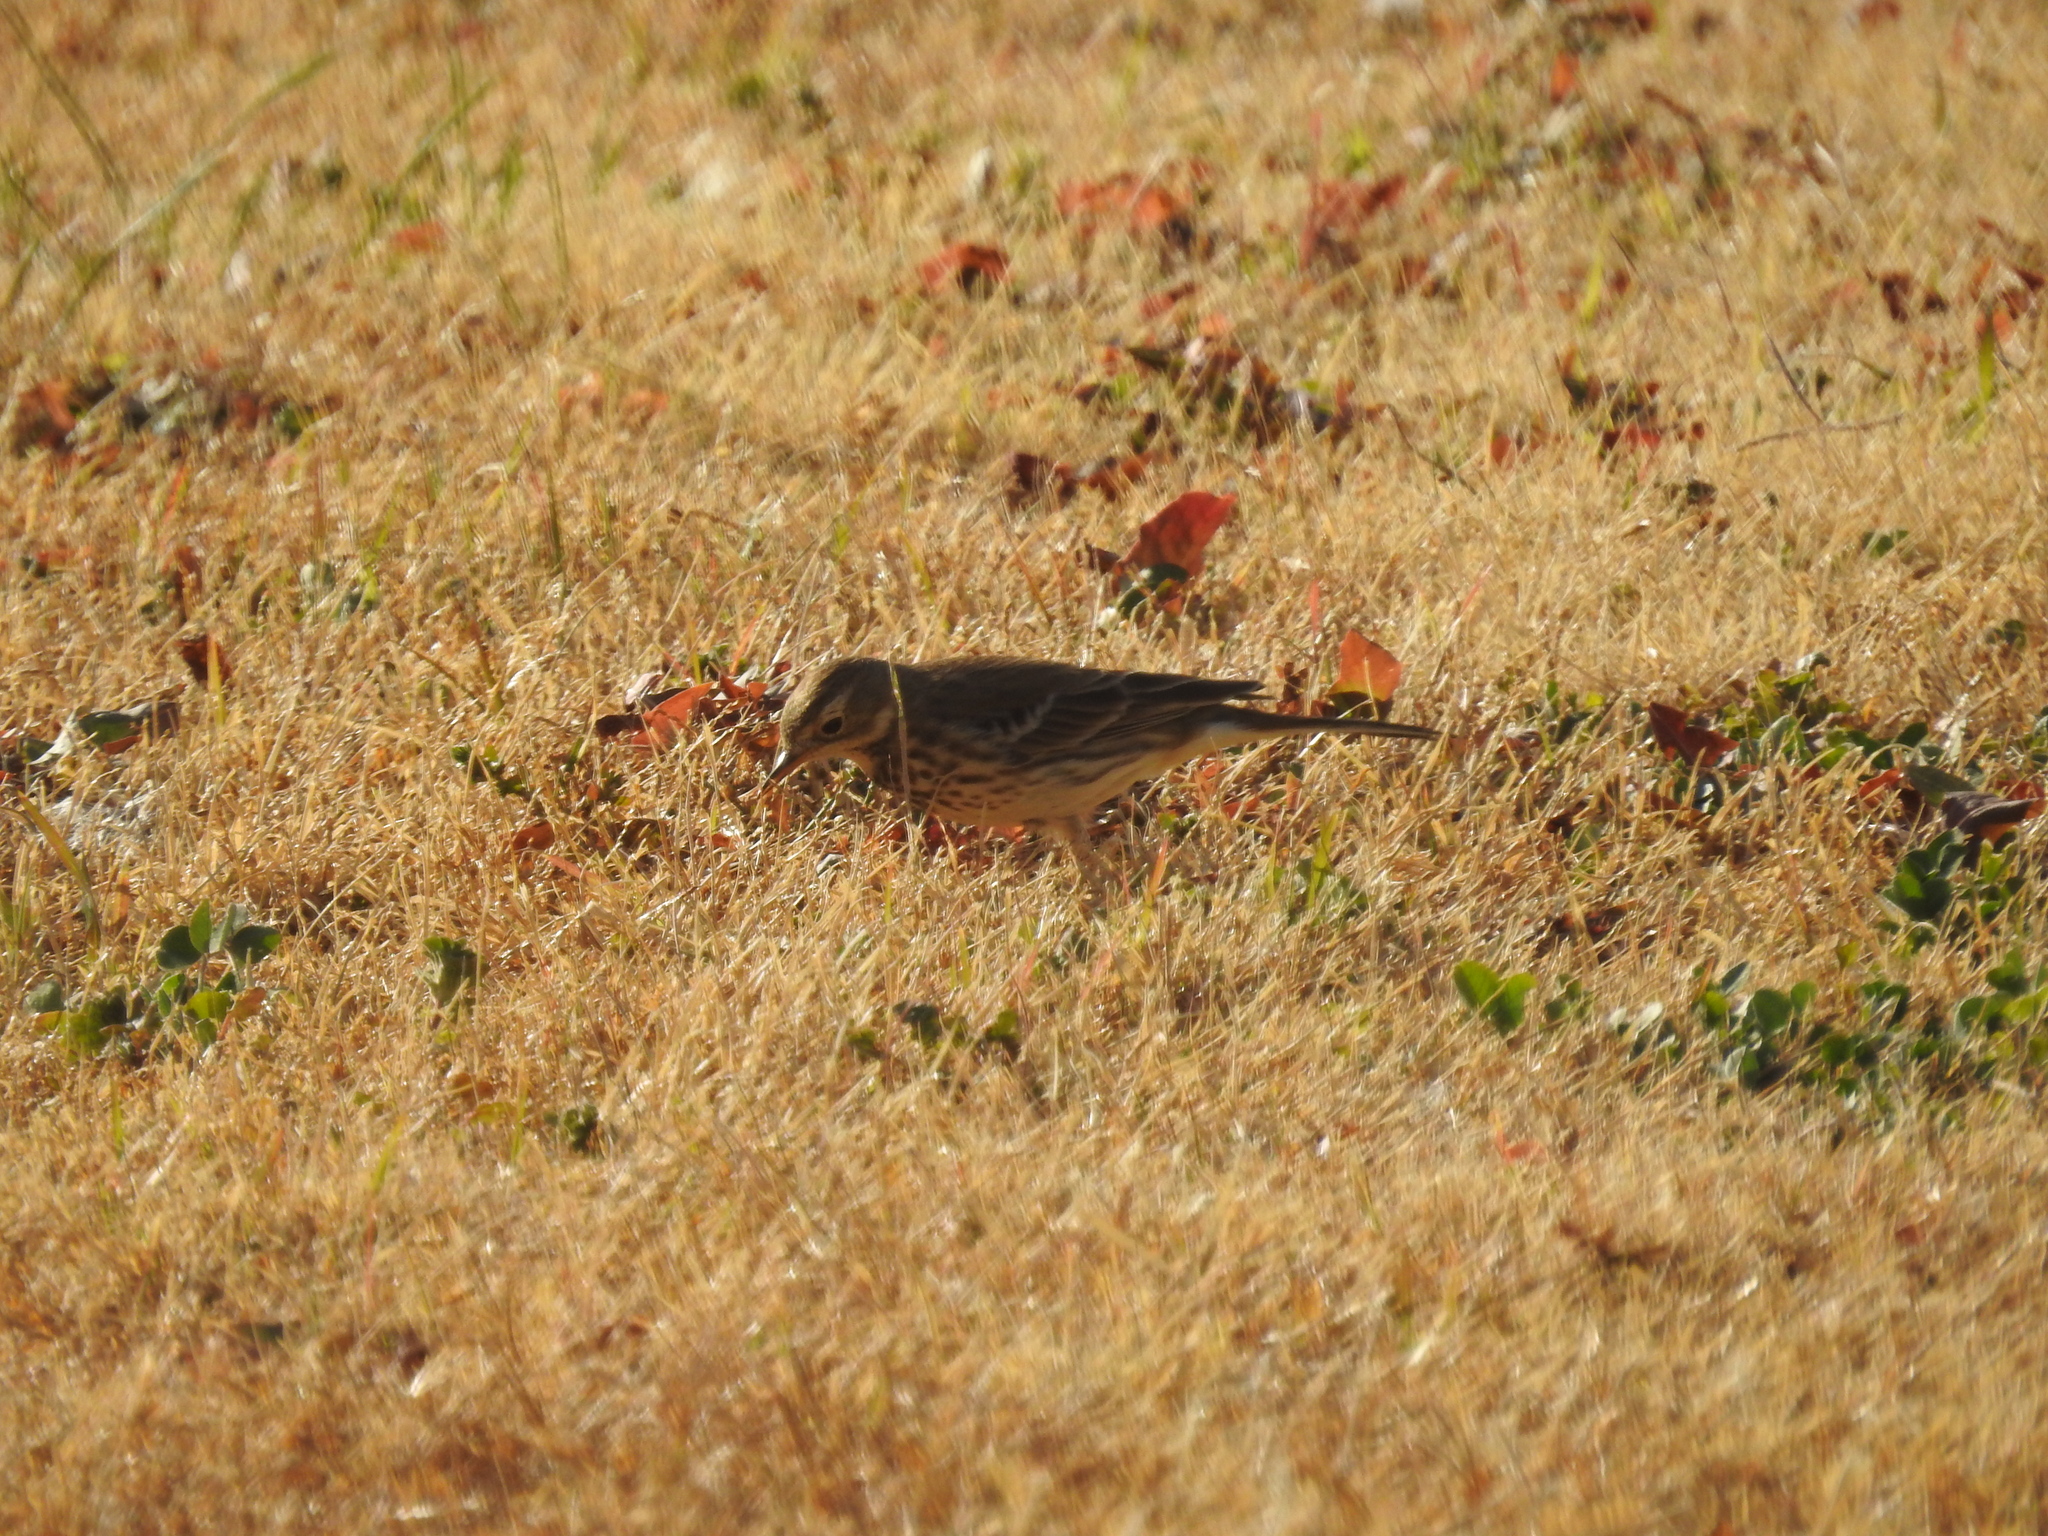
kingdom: Animalia
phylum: Chordata
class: Aves
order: Passeriformes
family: Motacillidae
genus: Anthus
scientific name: Anthus rubescens
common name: Buff-bellied pipit
